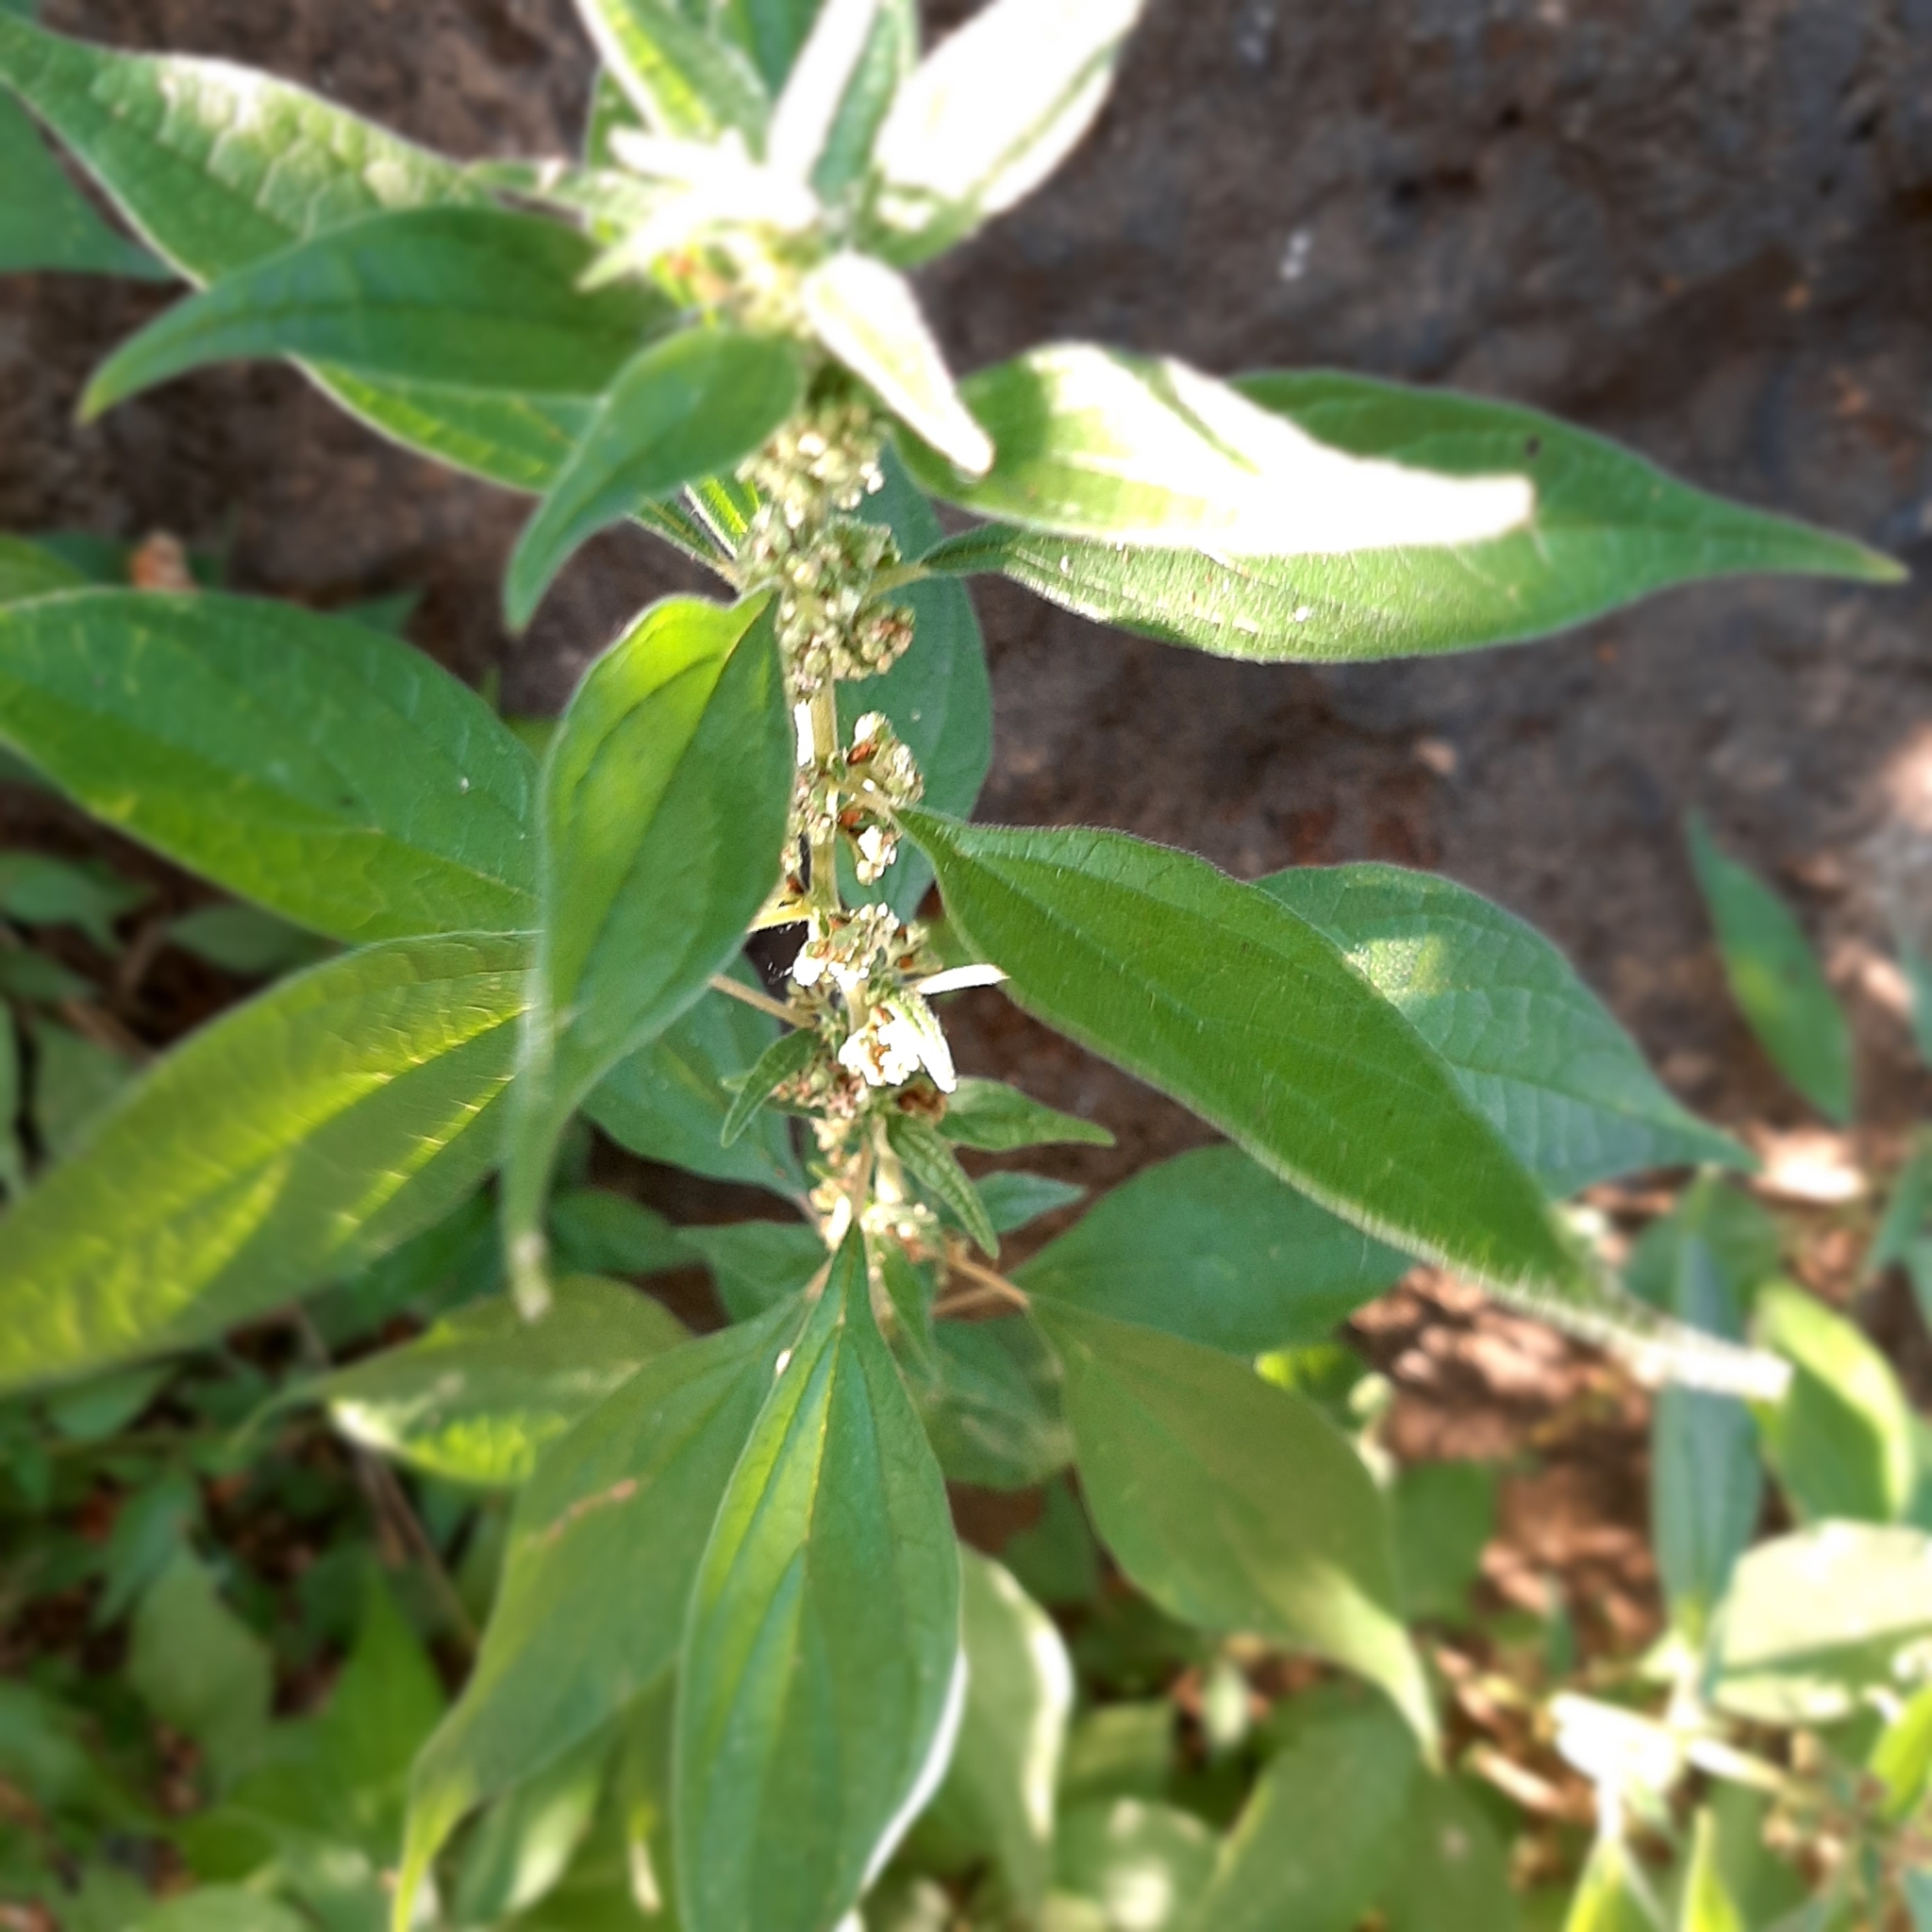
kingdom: Plantae
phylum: Tracheophyta
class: Magnoliopsida
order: Rosales
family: Urticaceae
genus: Parietaria
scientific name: Parietaria officinalis
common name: Eastern pellitory-of-the-wall
